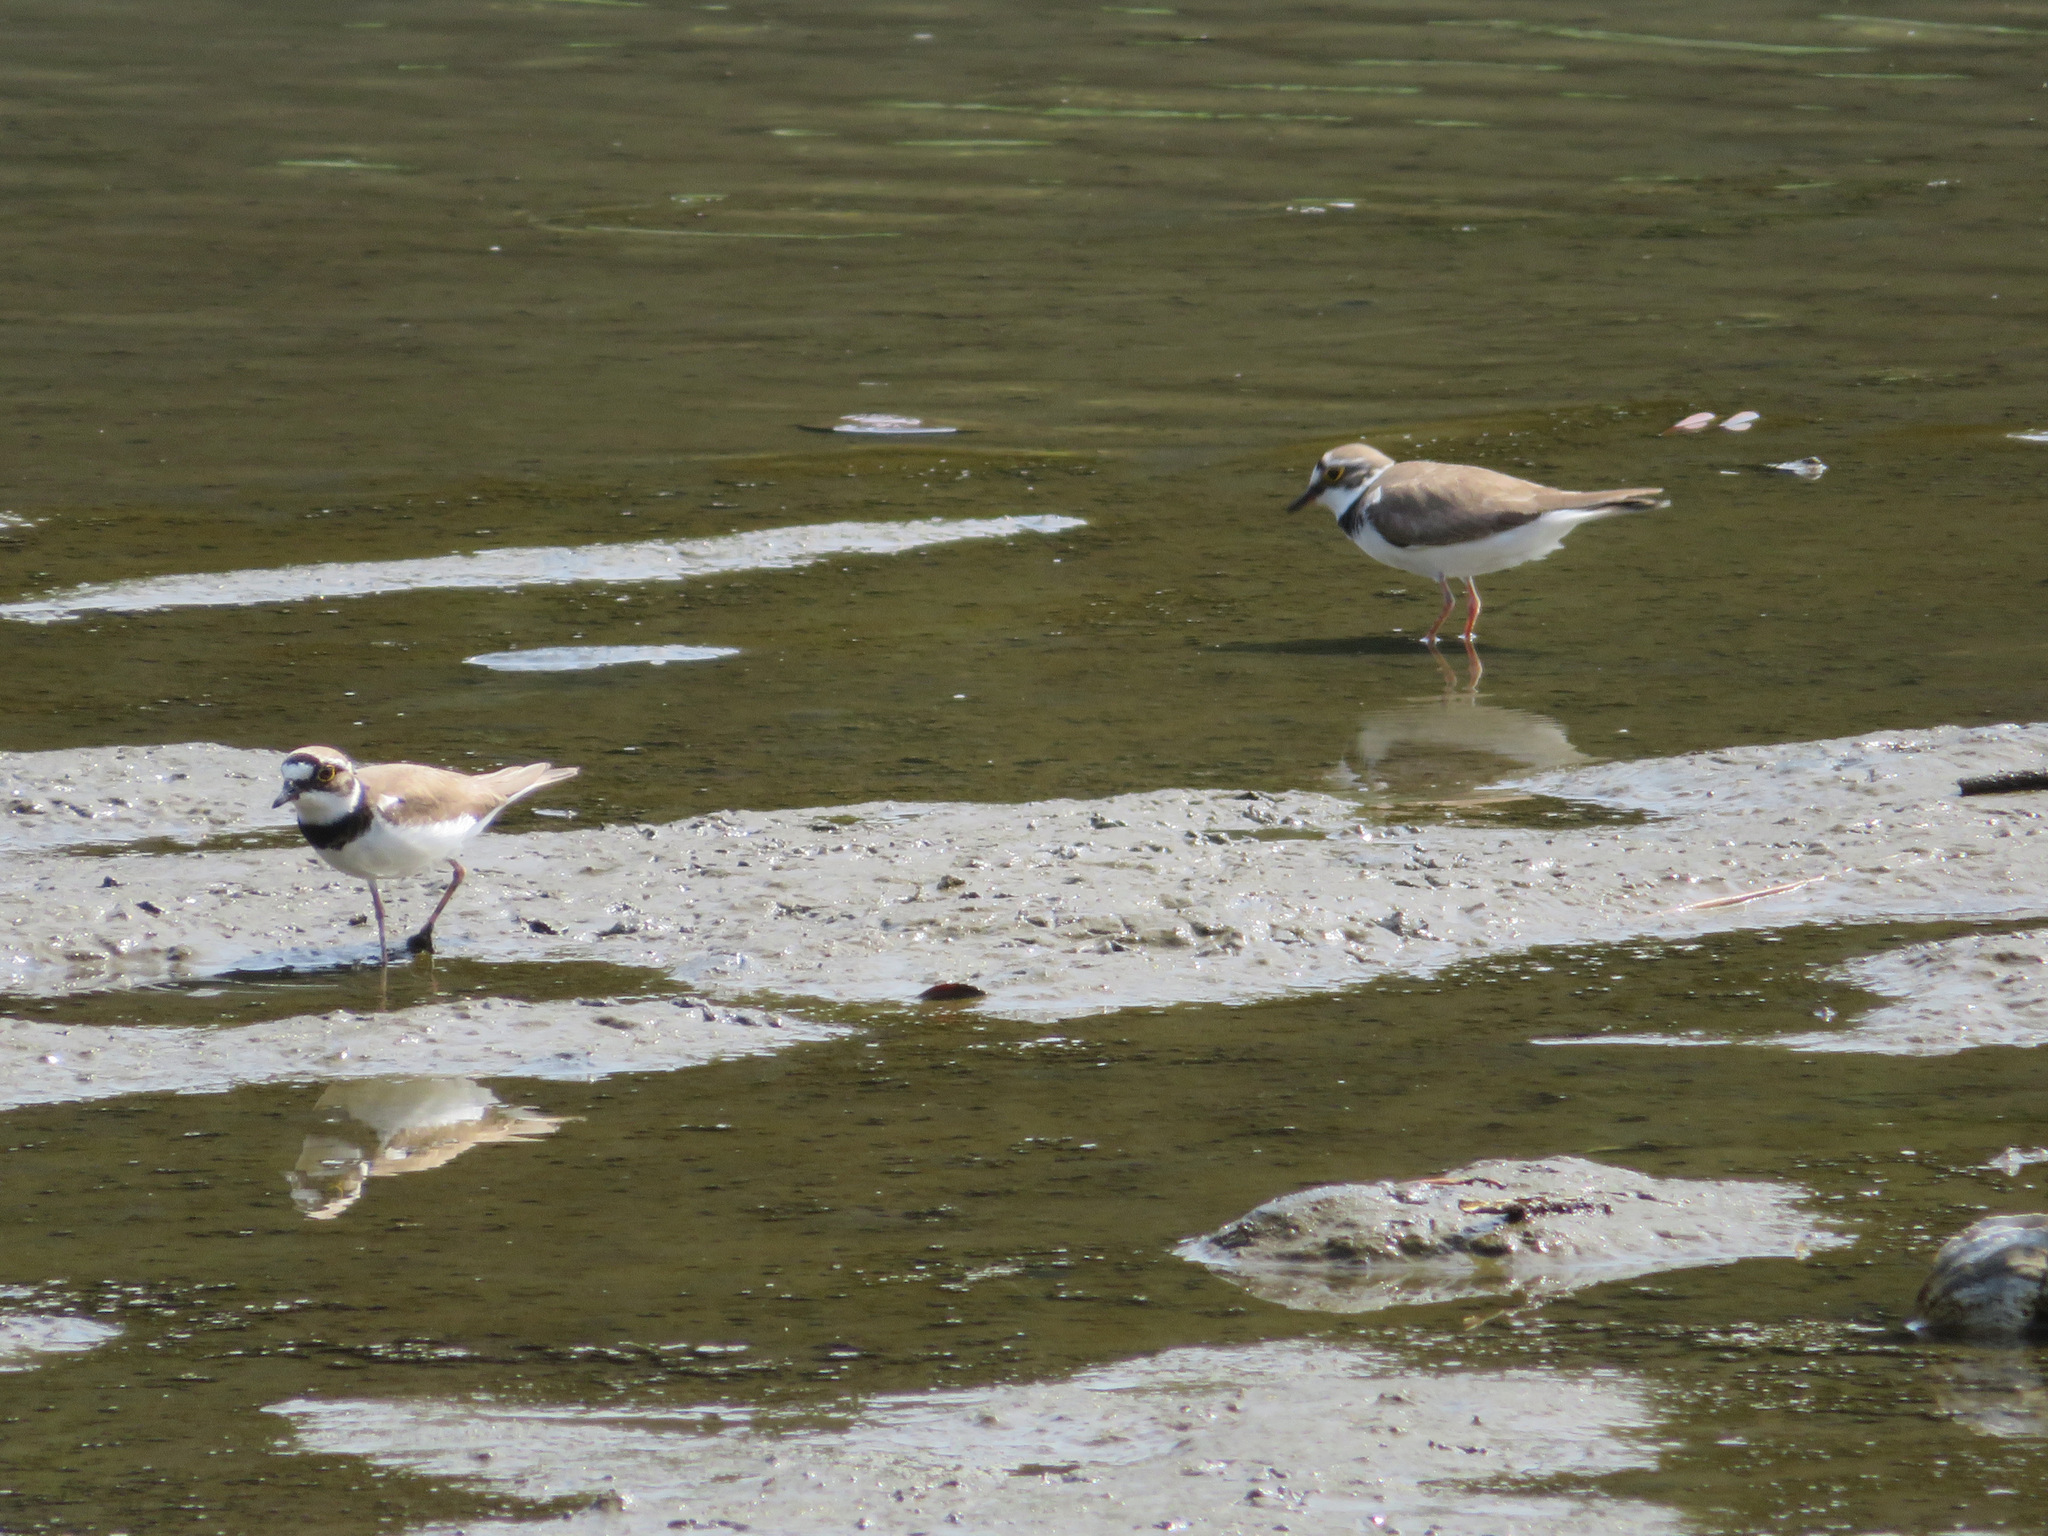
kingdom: Animalia
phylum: Chordata
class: Aves
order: Charadriiformes
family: Charadriidae
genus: Charadrius
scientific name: Charadrius dubius
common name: Little ringed plover
